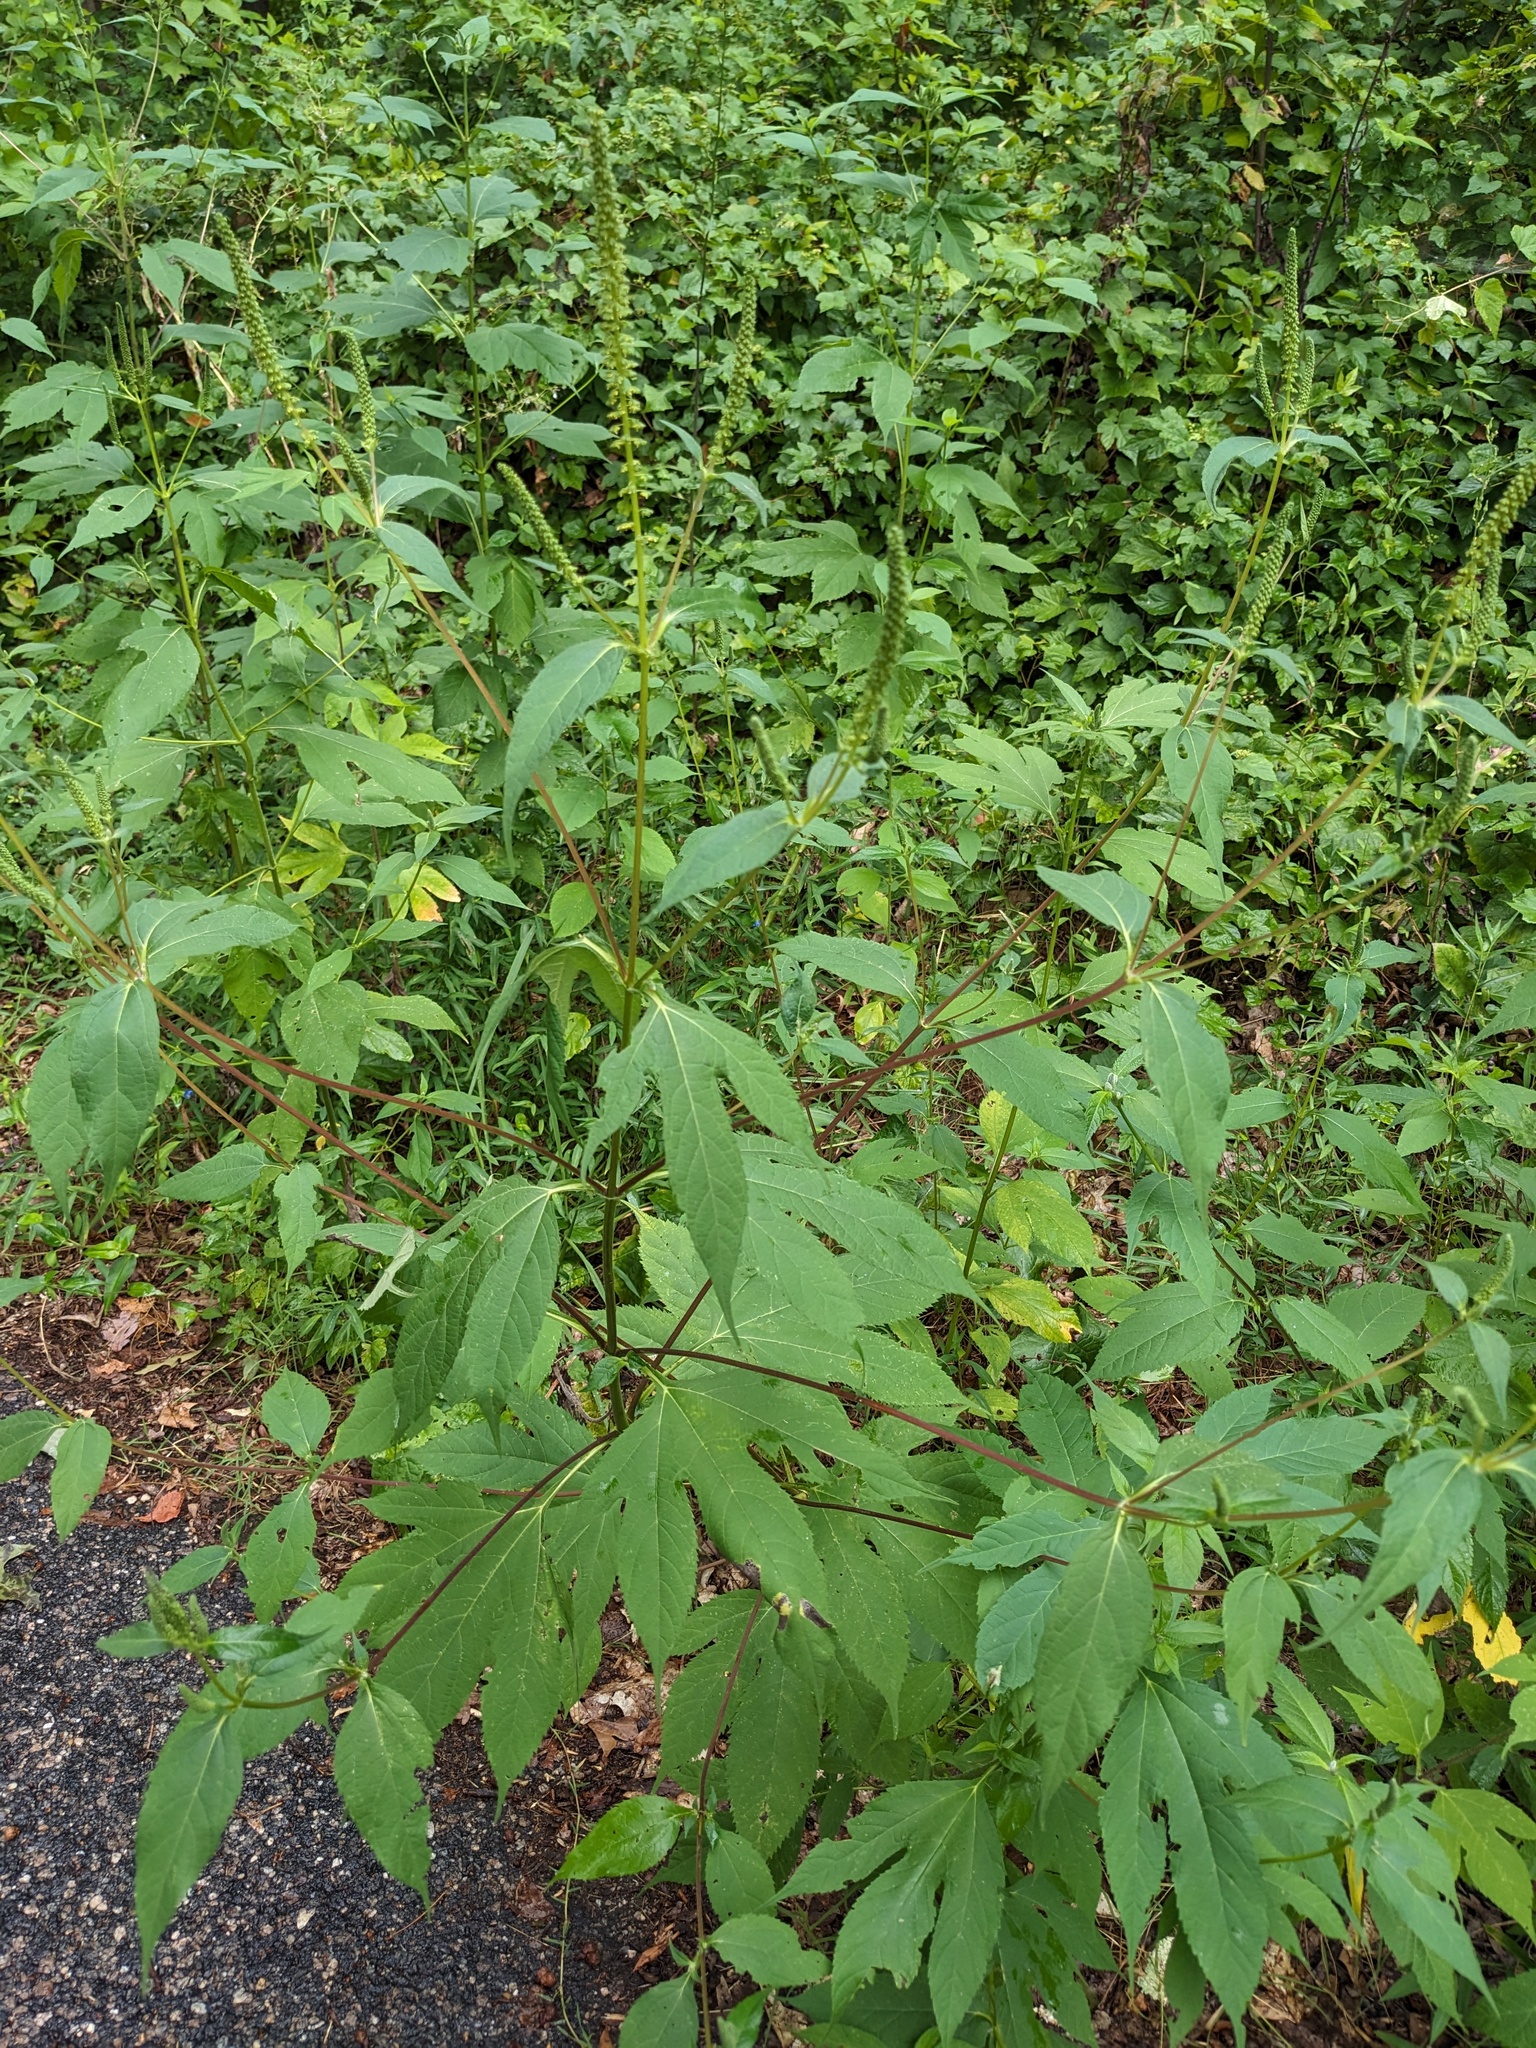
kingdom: Plantae
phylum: Tracheophyta
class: Magnoliopsida
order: Asterales
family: Asteraceae
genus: Ambrosia
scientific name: Ambrosia trifida
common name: Giant ragweed
